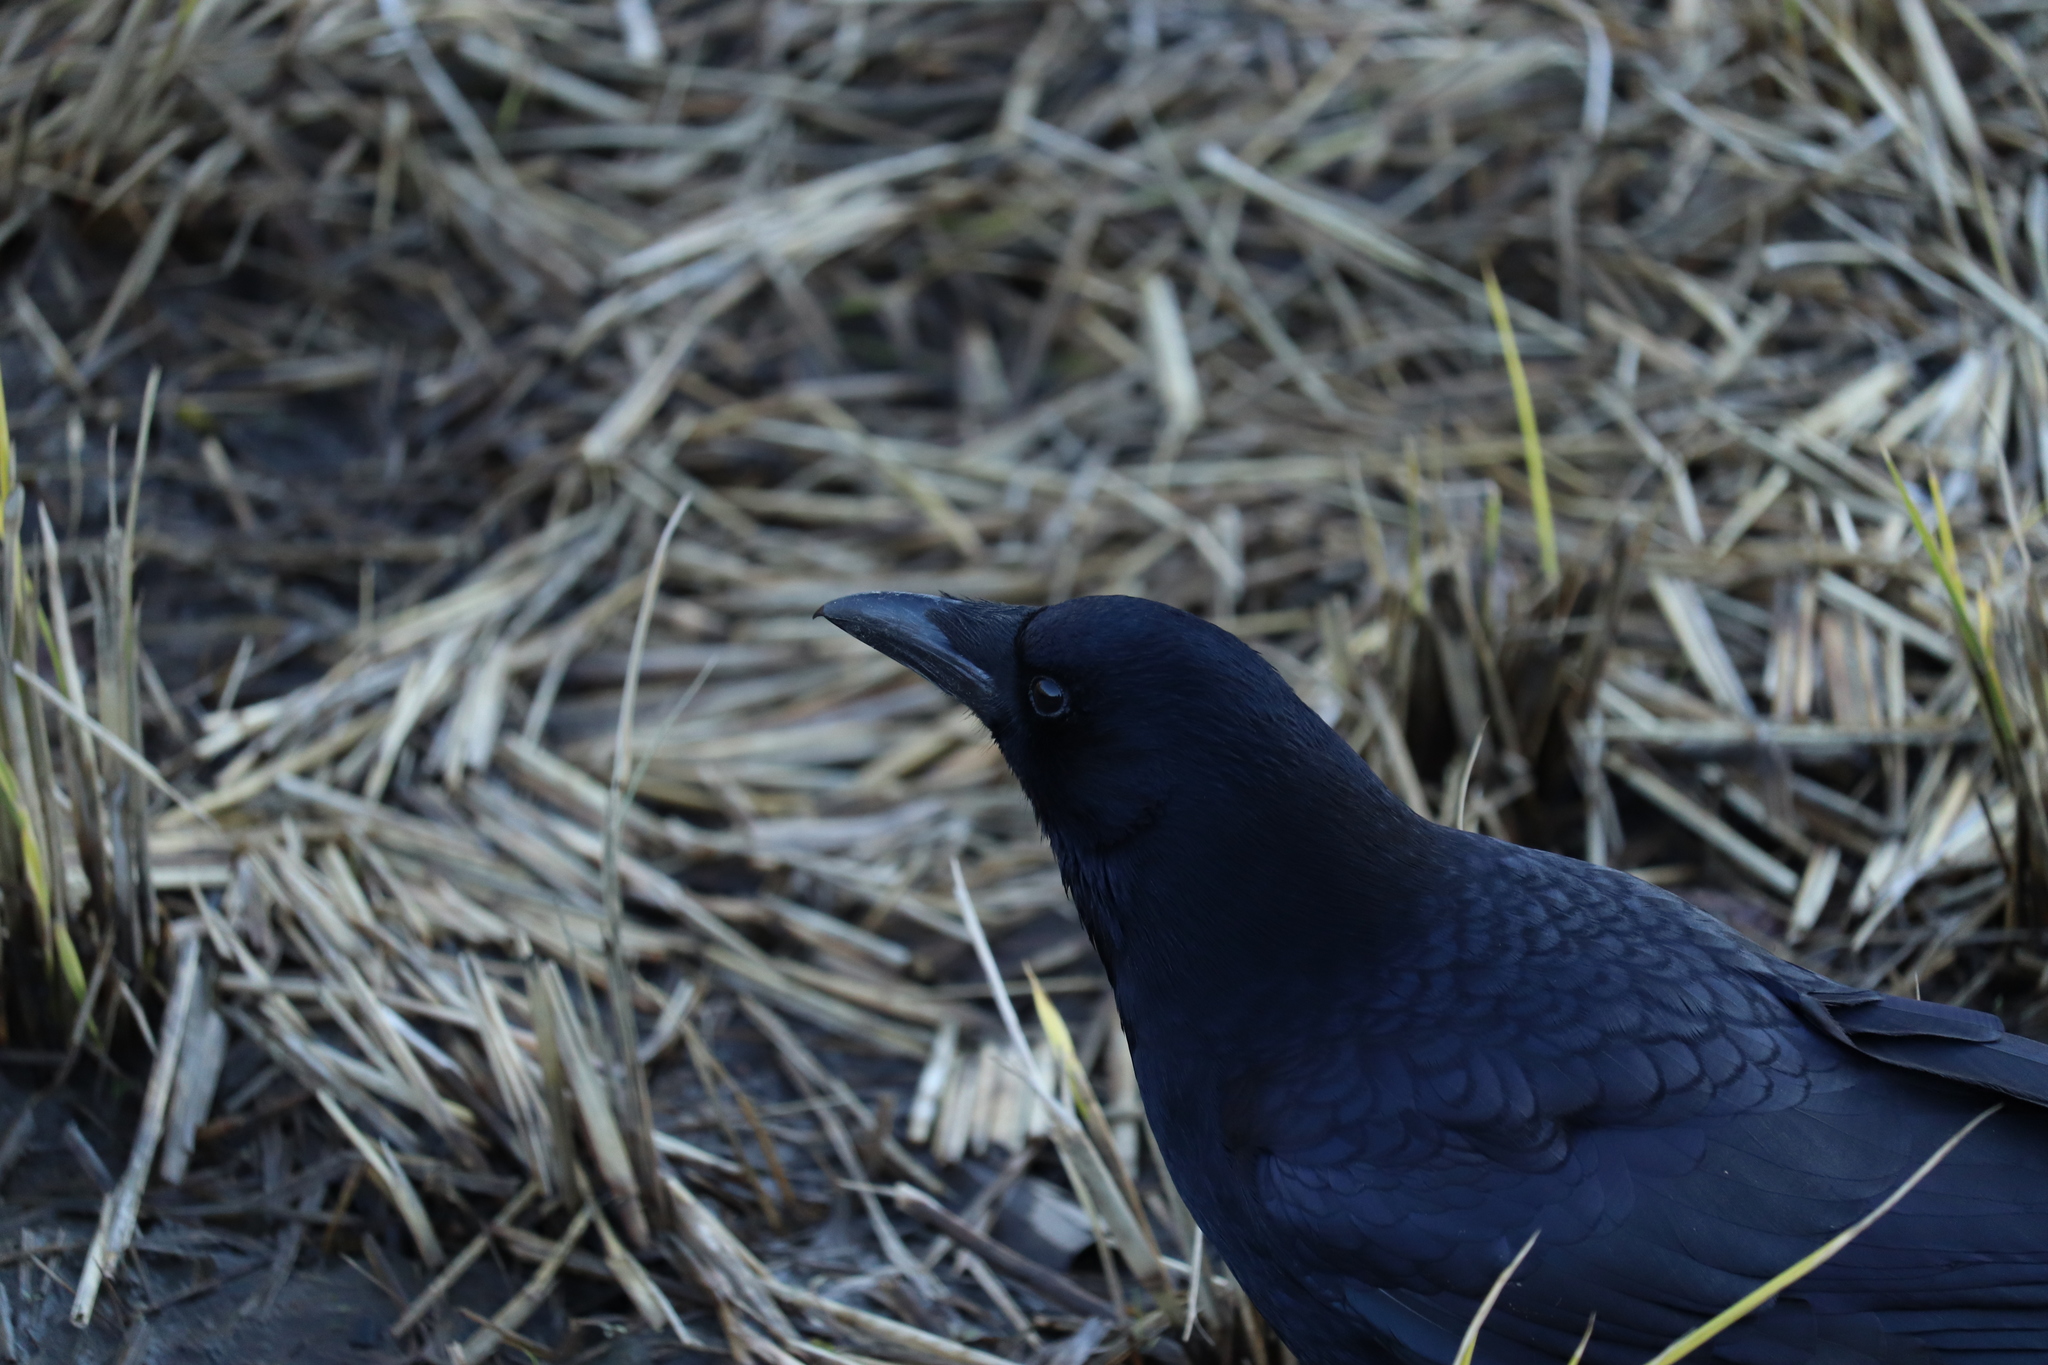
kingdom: Animalia
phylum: Chordata
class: Aves
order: Passeriformes
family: Corvidae
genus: Corvus
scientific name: Corvus corone
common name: Carrion crow
